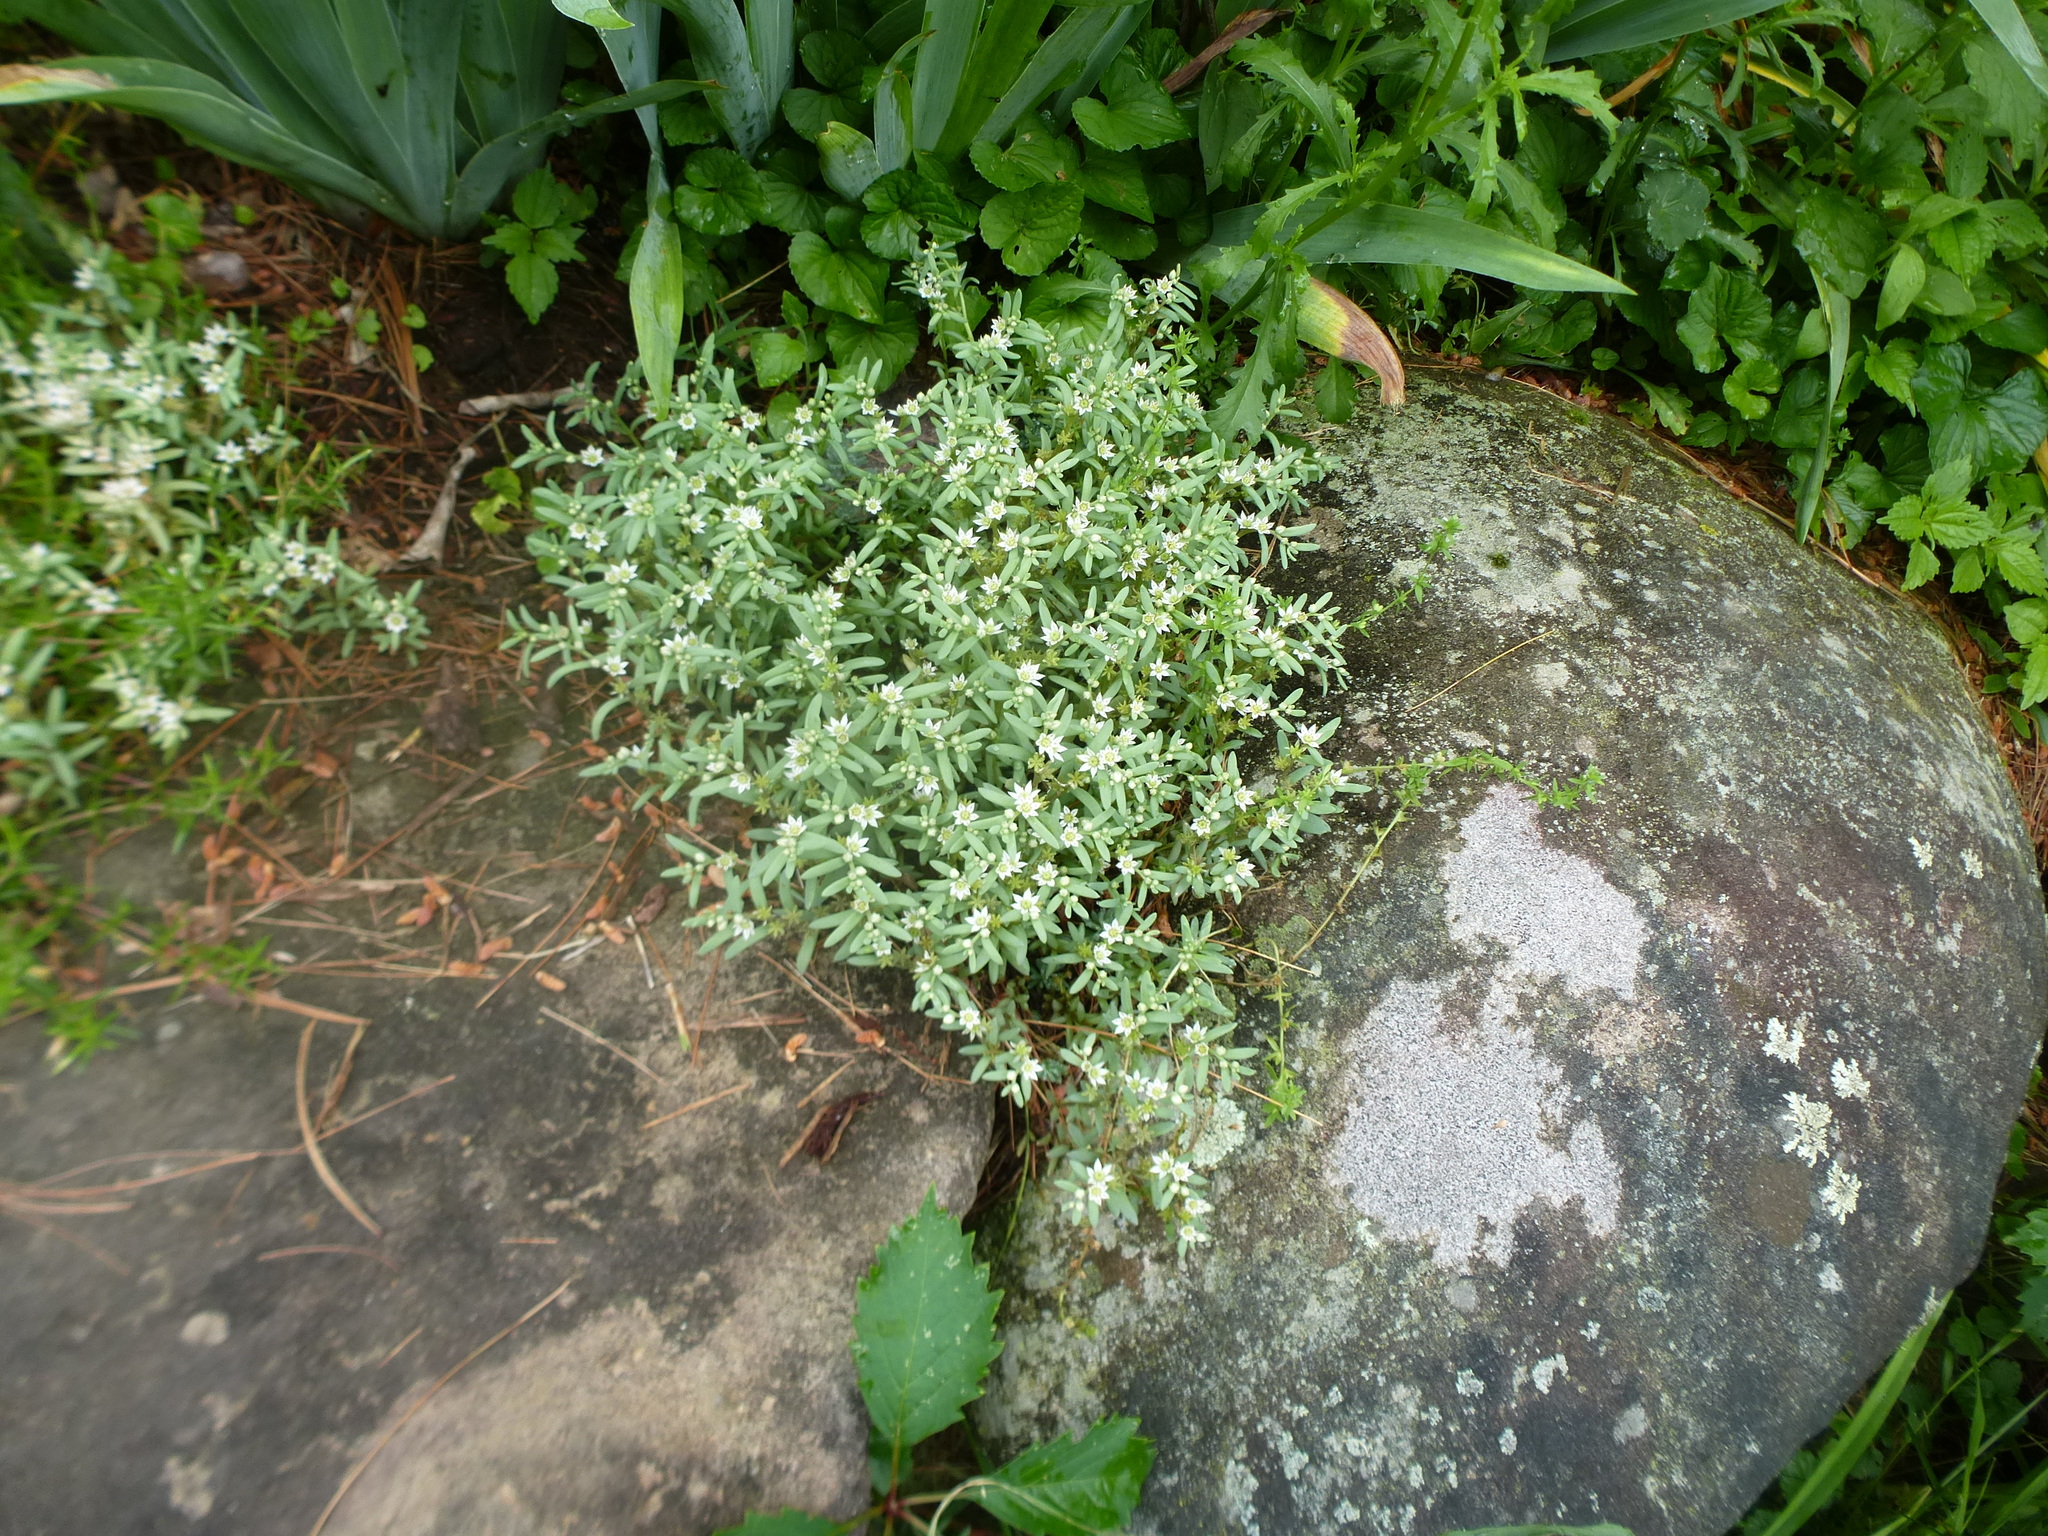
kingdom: Plantae
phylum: Tracheophyta
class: Magnoliopsida
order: Saxifragales
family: Crassulaceae
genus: Sedum
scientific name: Sedum hispanicum
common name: Spanish stonecrop
